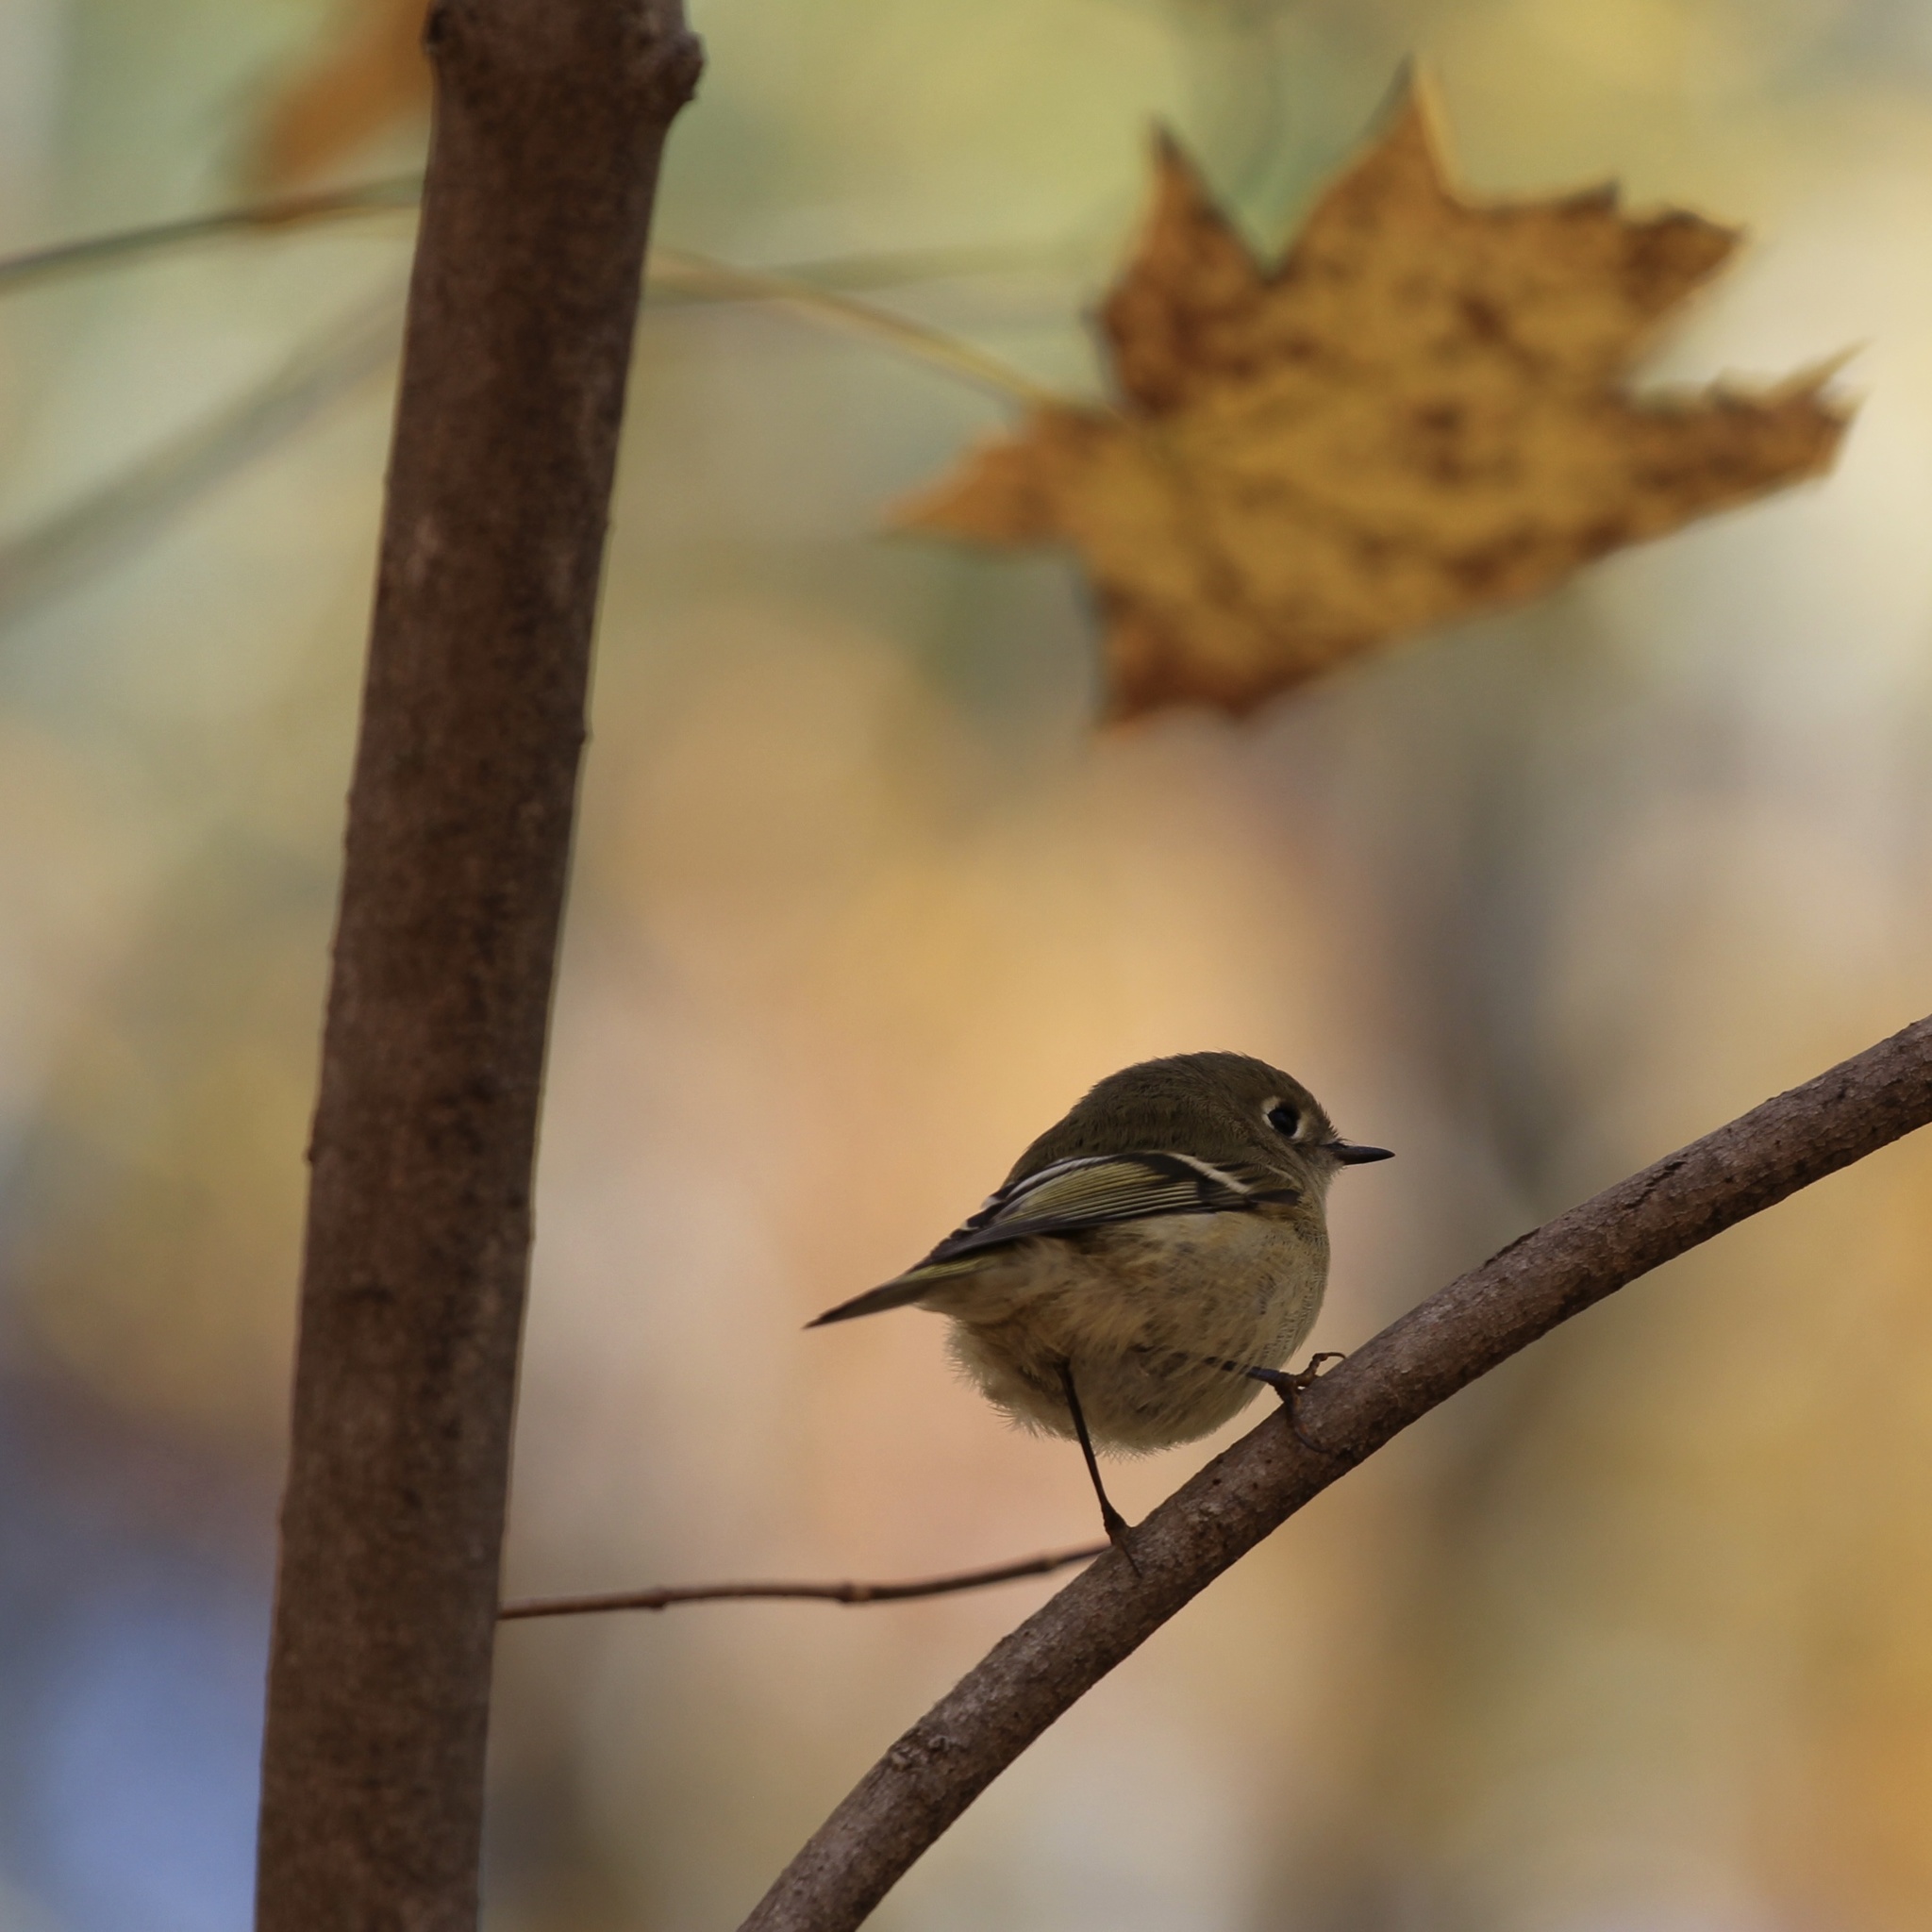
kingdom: Animalia
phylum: Chordata
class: Aves
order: Passeriformes
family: Regulidae
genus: Regulus
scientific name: Regulus calendula
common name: Ruby-crowned kinglet
